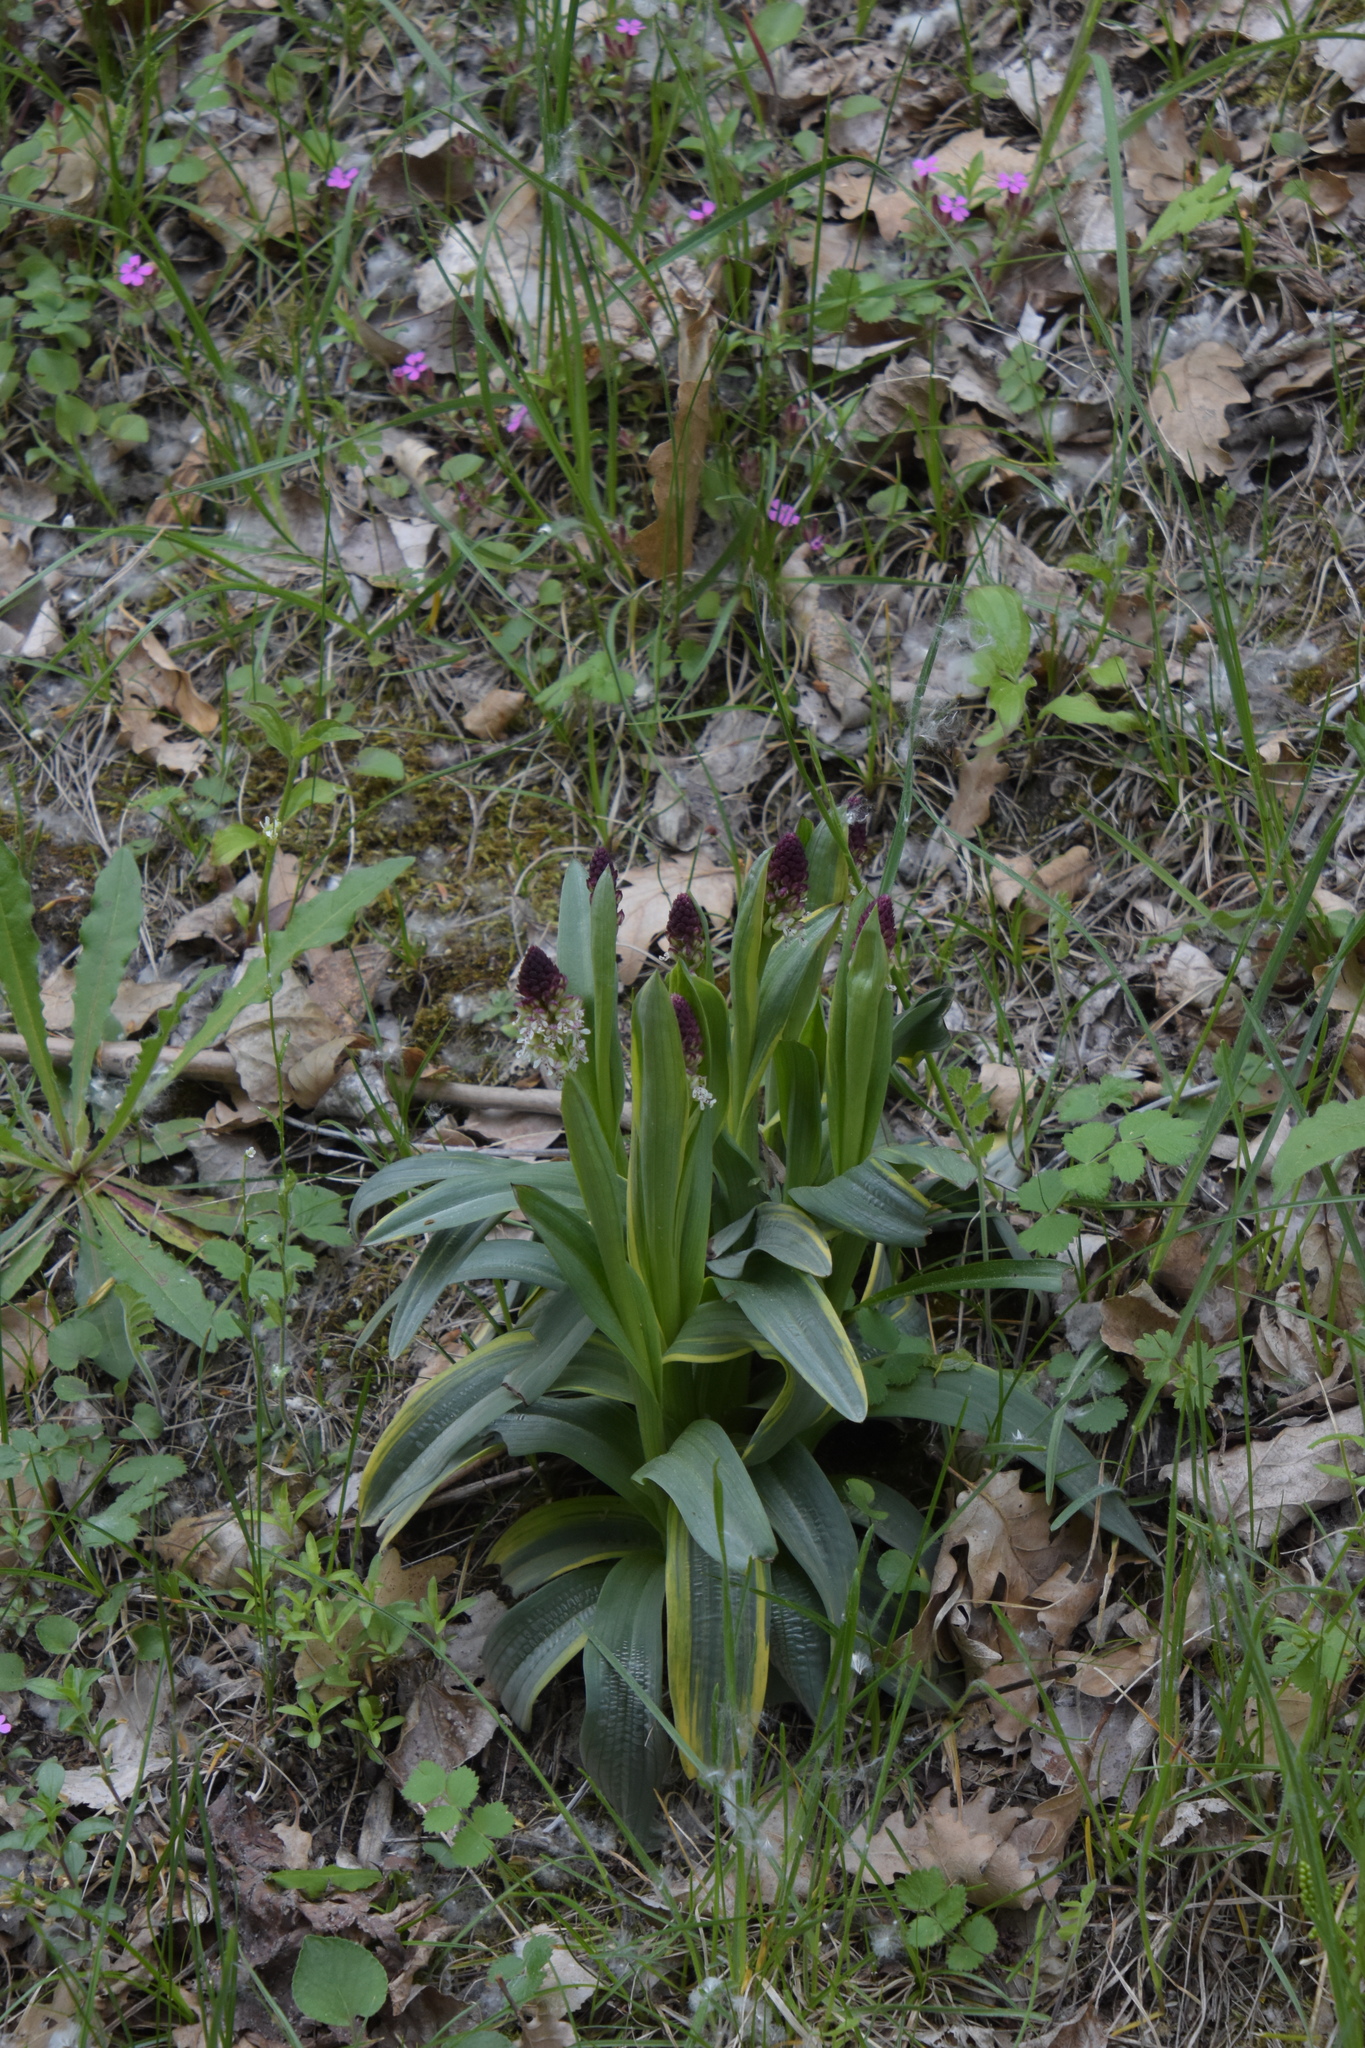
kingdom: Plantae
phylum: Tracheophyta
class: Liliopsida
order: Asparagales
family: Orchidaceae
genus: Neotinea
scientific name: Neotinea ustulata
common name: Burnt orchid
